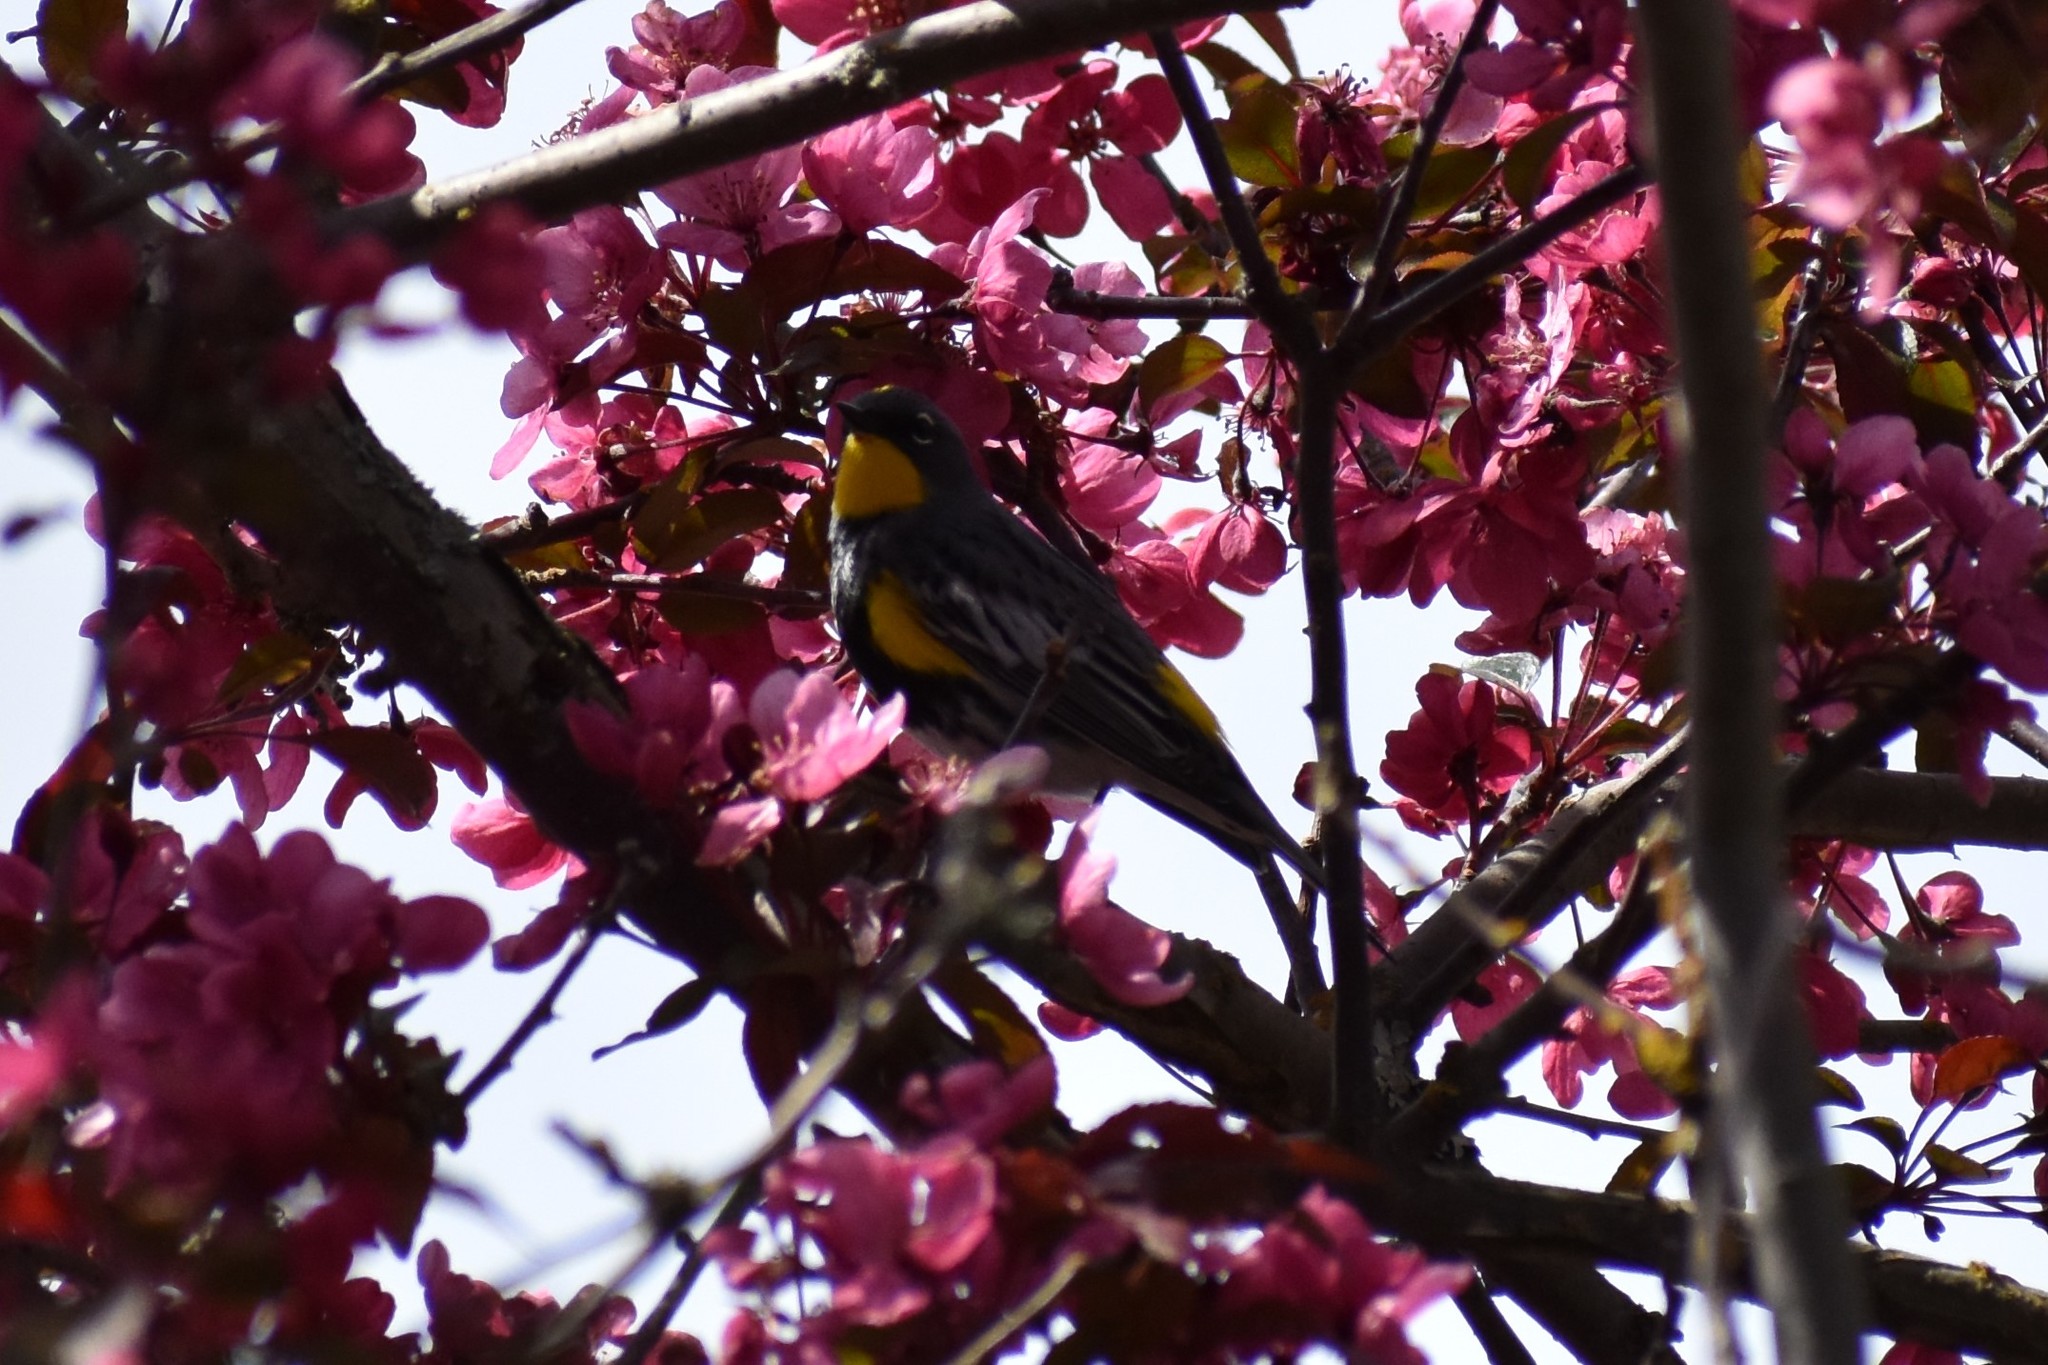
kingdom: Animalia
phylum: Chordata
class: Aves
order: Passeriformes
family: Parulidae
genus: Setophaga
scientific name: Setophaga auduboni
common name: Audubon's warbler
